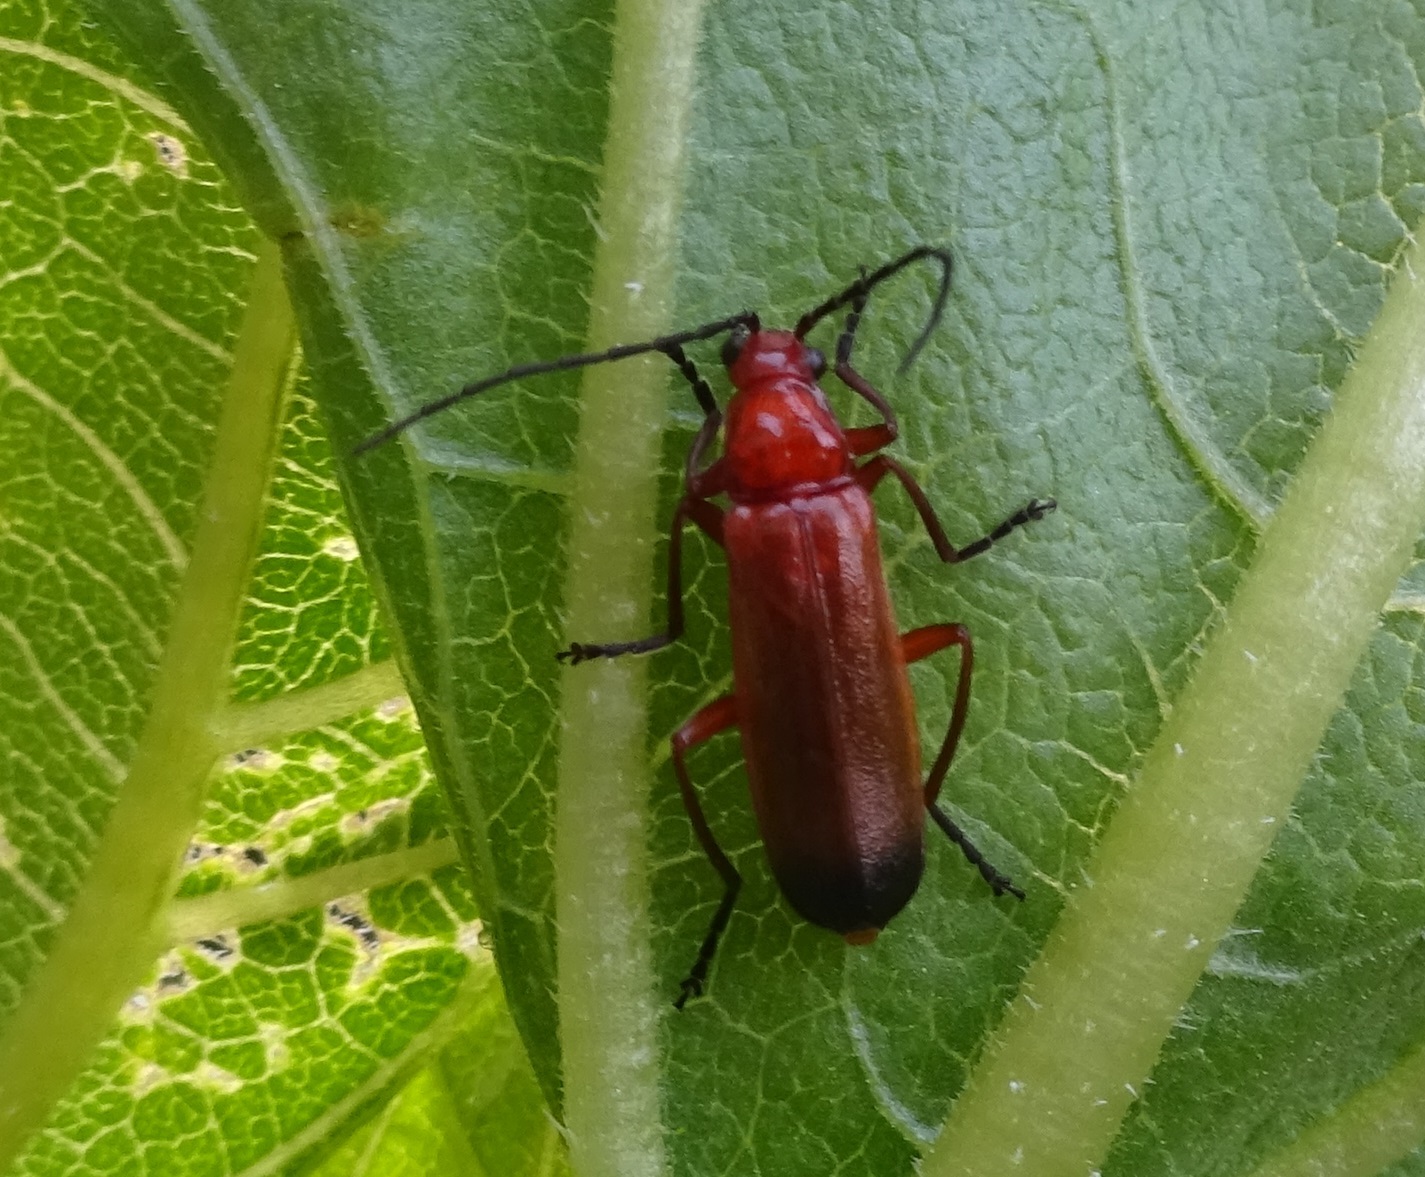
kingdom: Animalia
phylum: Arthropoda
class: Insecta
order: Coleoptera
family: Cantharidae
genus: Rhagonycha
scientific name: Rhagonycha fulva
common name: Common red soldier beetle
